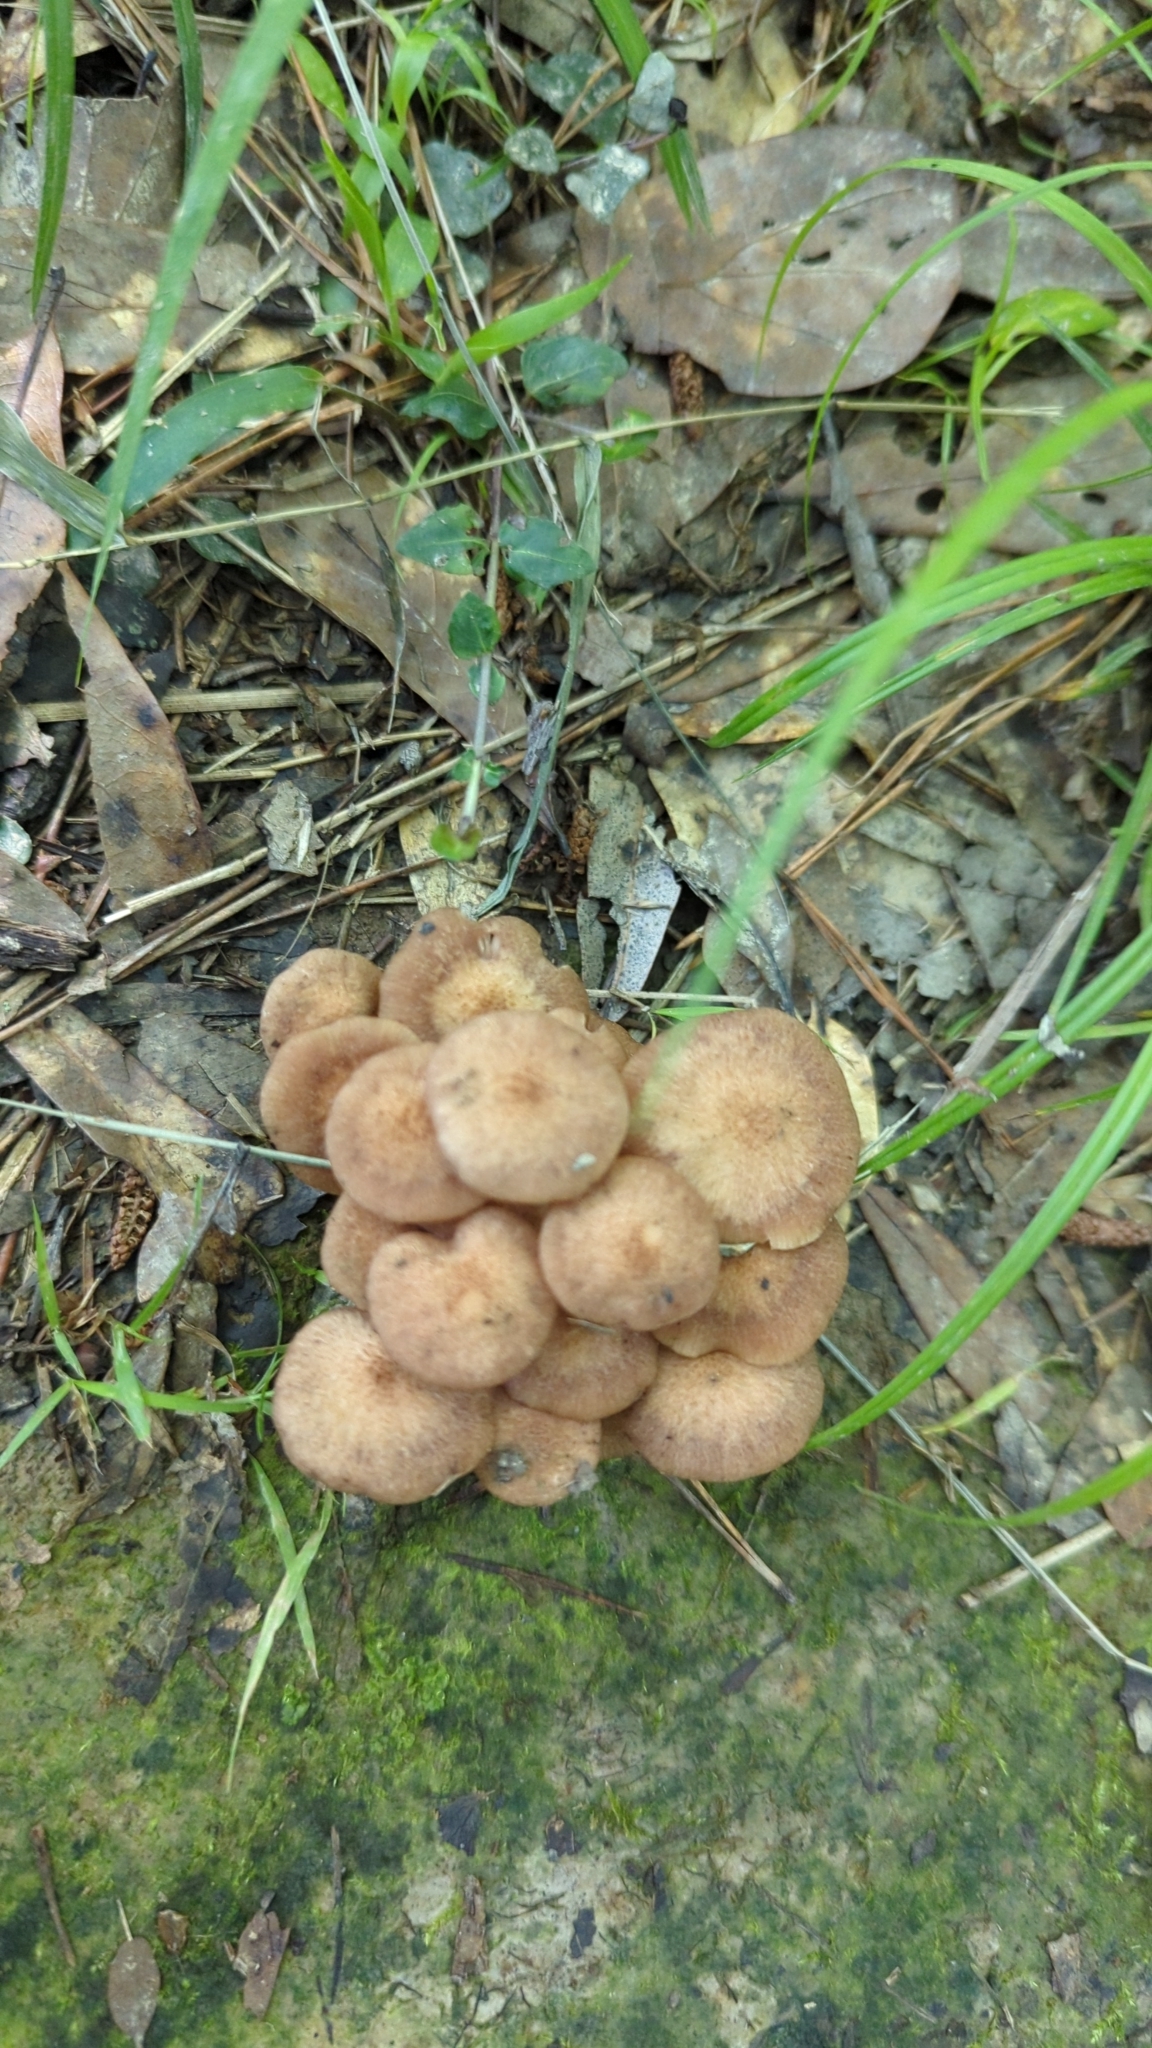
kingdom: Fungi
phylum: Basidiomycota
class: Agaricomycetes
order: Agaricales
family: Physalacriaceae
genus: Desarmillaria
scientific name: Desarmillaria caespitosa
